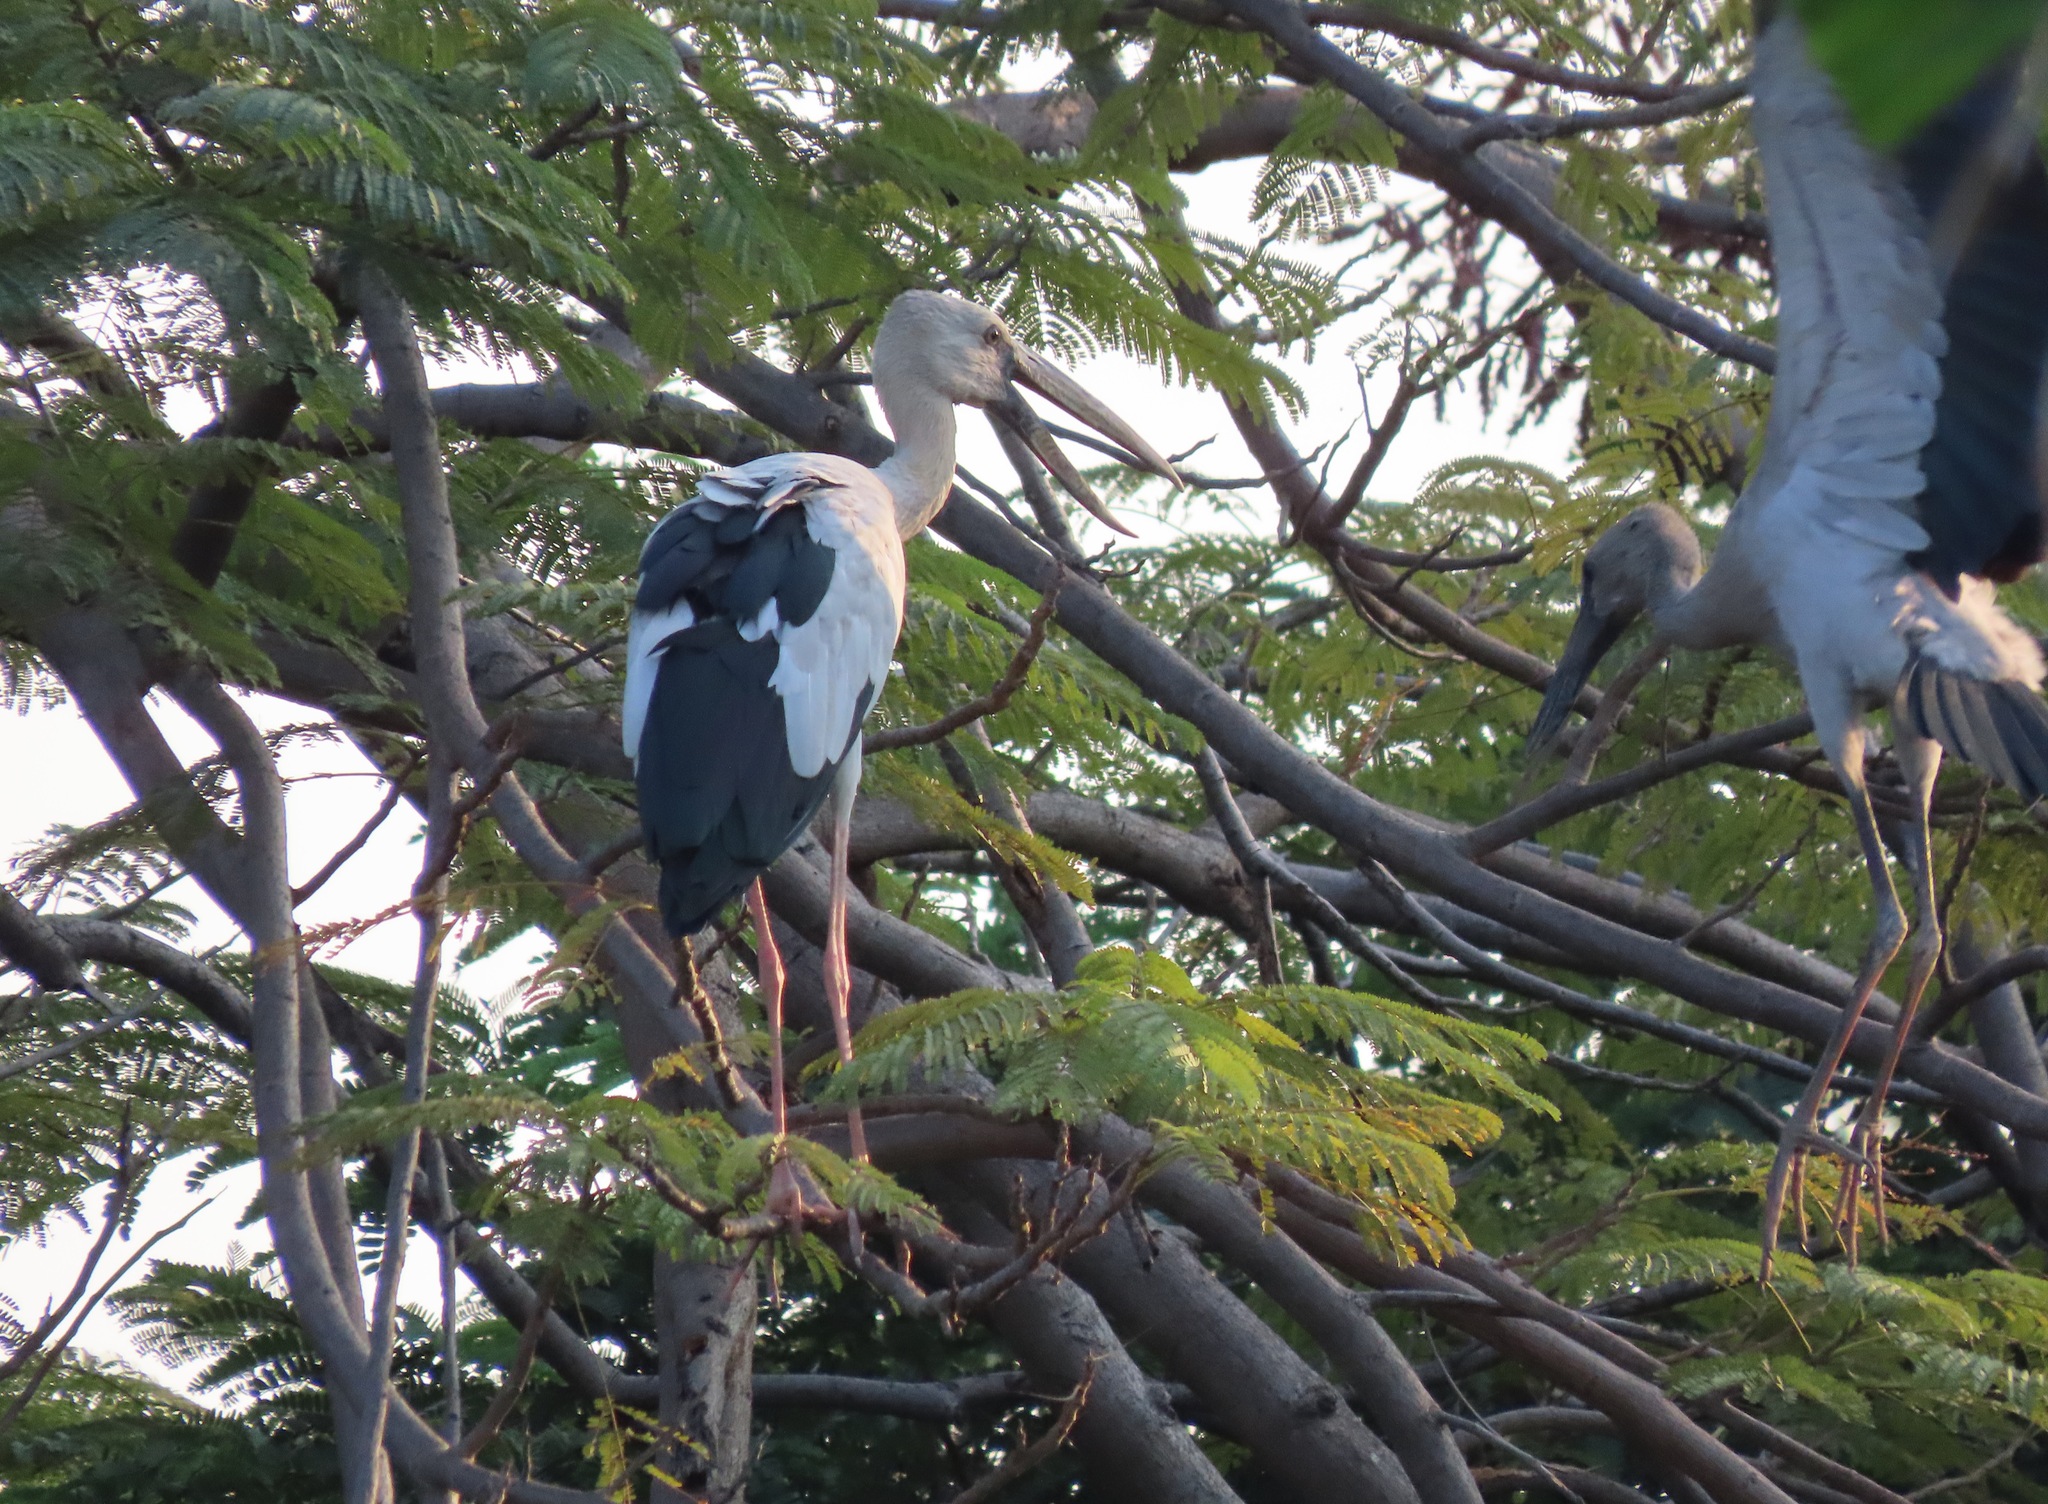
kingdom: Animalia
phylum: Chordata
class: Aves
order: Ciconiiformes
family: Ciconiidae
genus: Anastomus
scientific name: Anastomus oscitans
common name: Asian openbill
